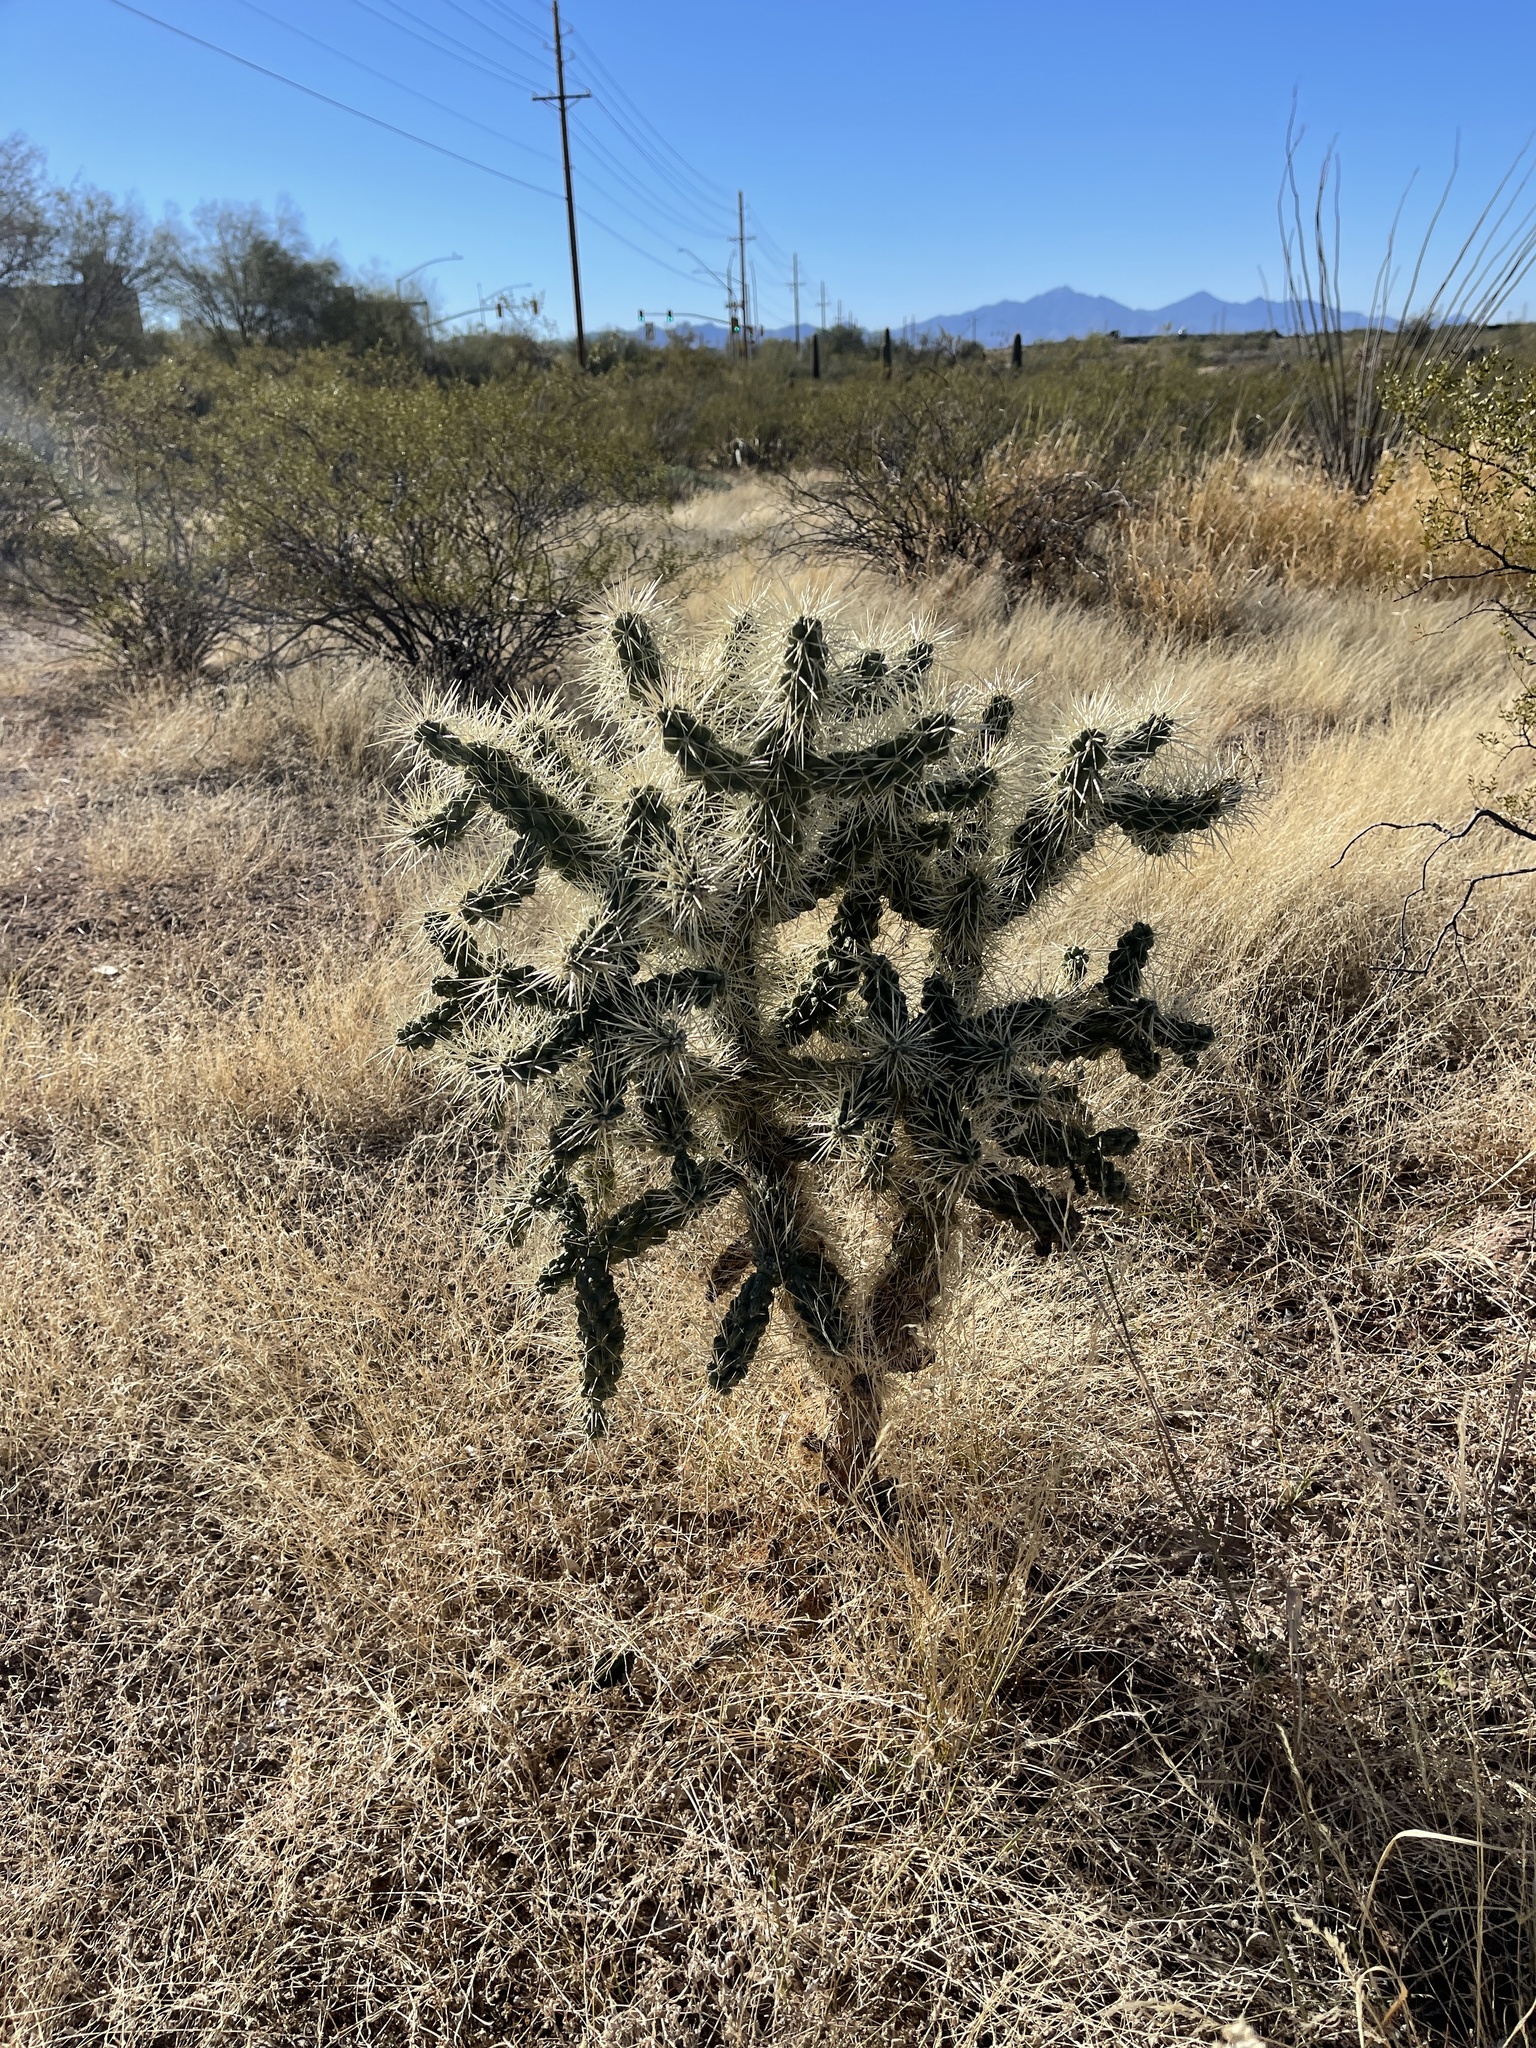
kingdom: Plantae
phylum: Tracheophyta
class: Magnoliopsida
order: Caryophyllales
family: Cactaceae
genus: Cylindropuntia
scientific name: Cylindropuntia fulgida
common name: Jumping cholla
